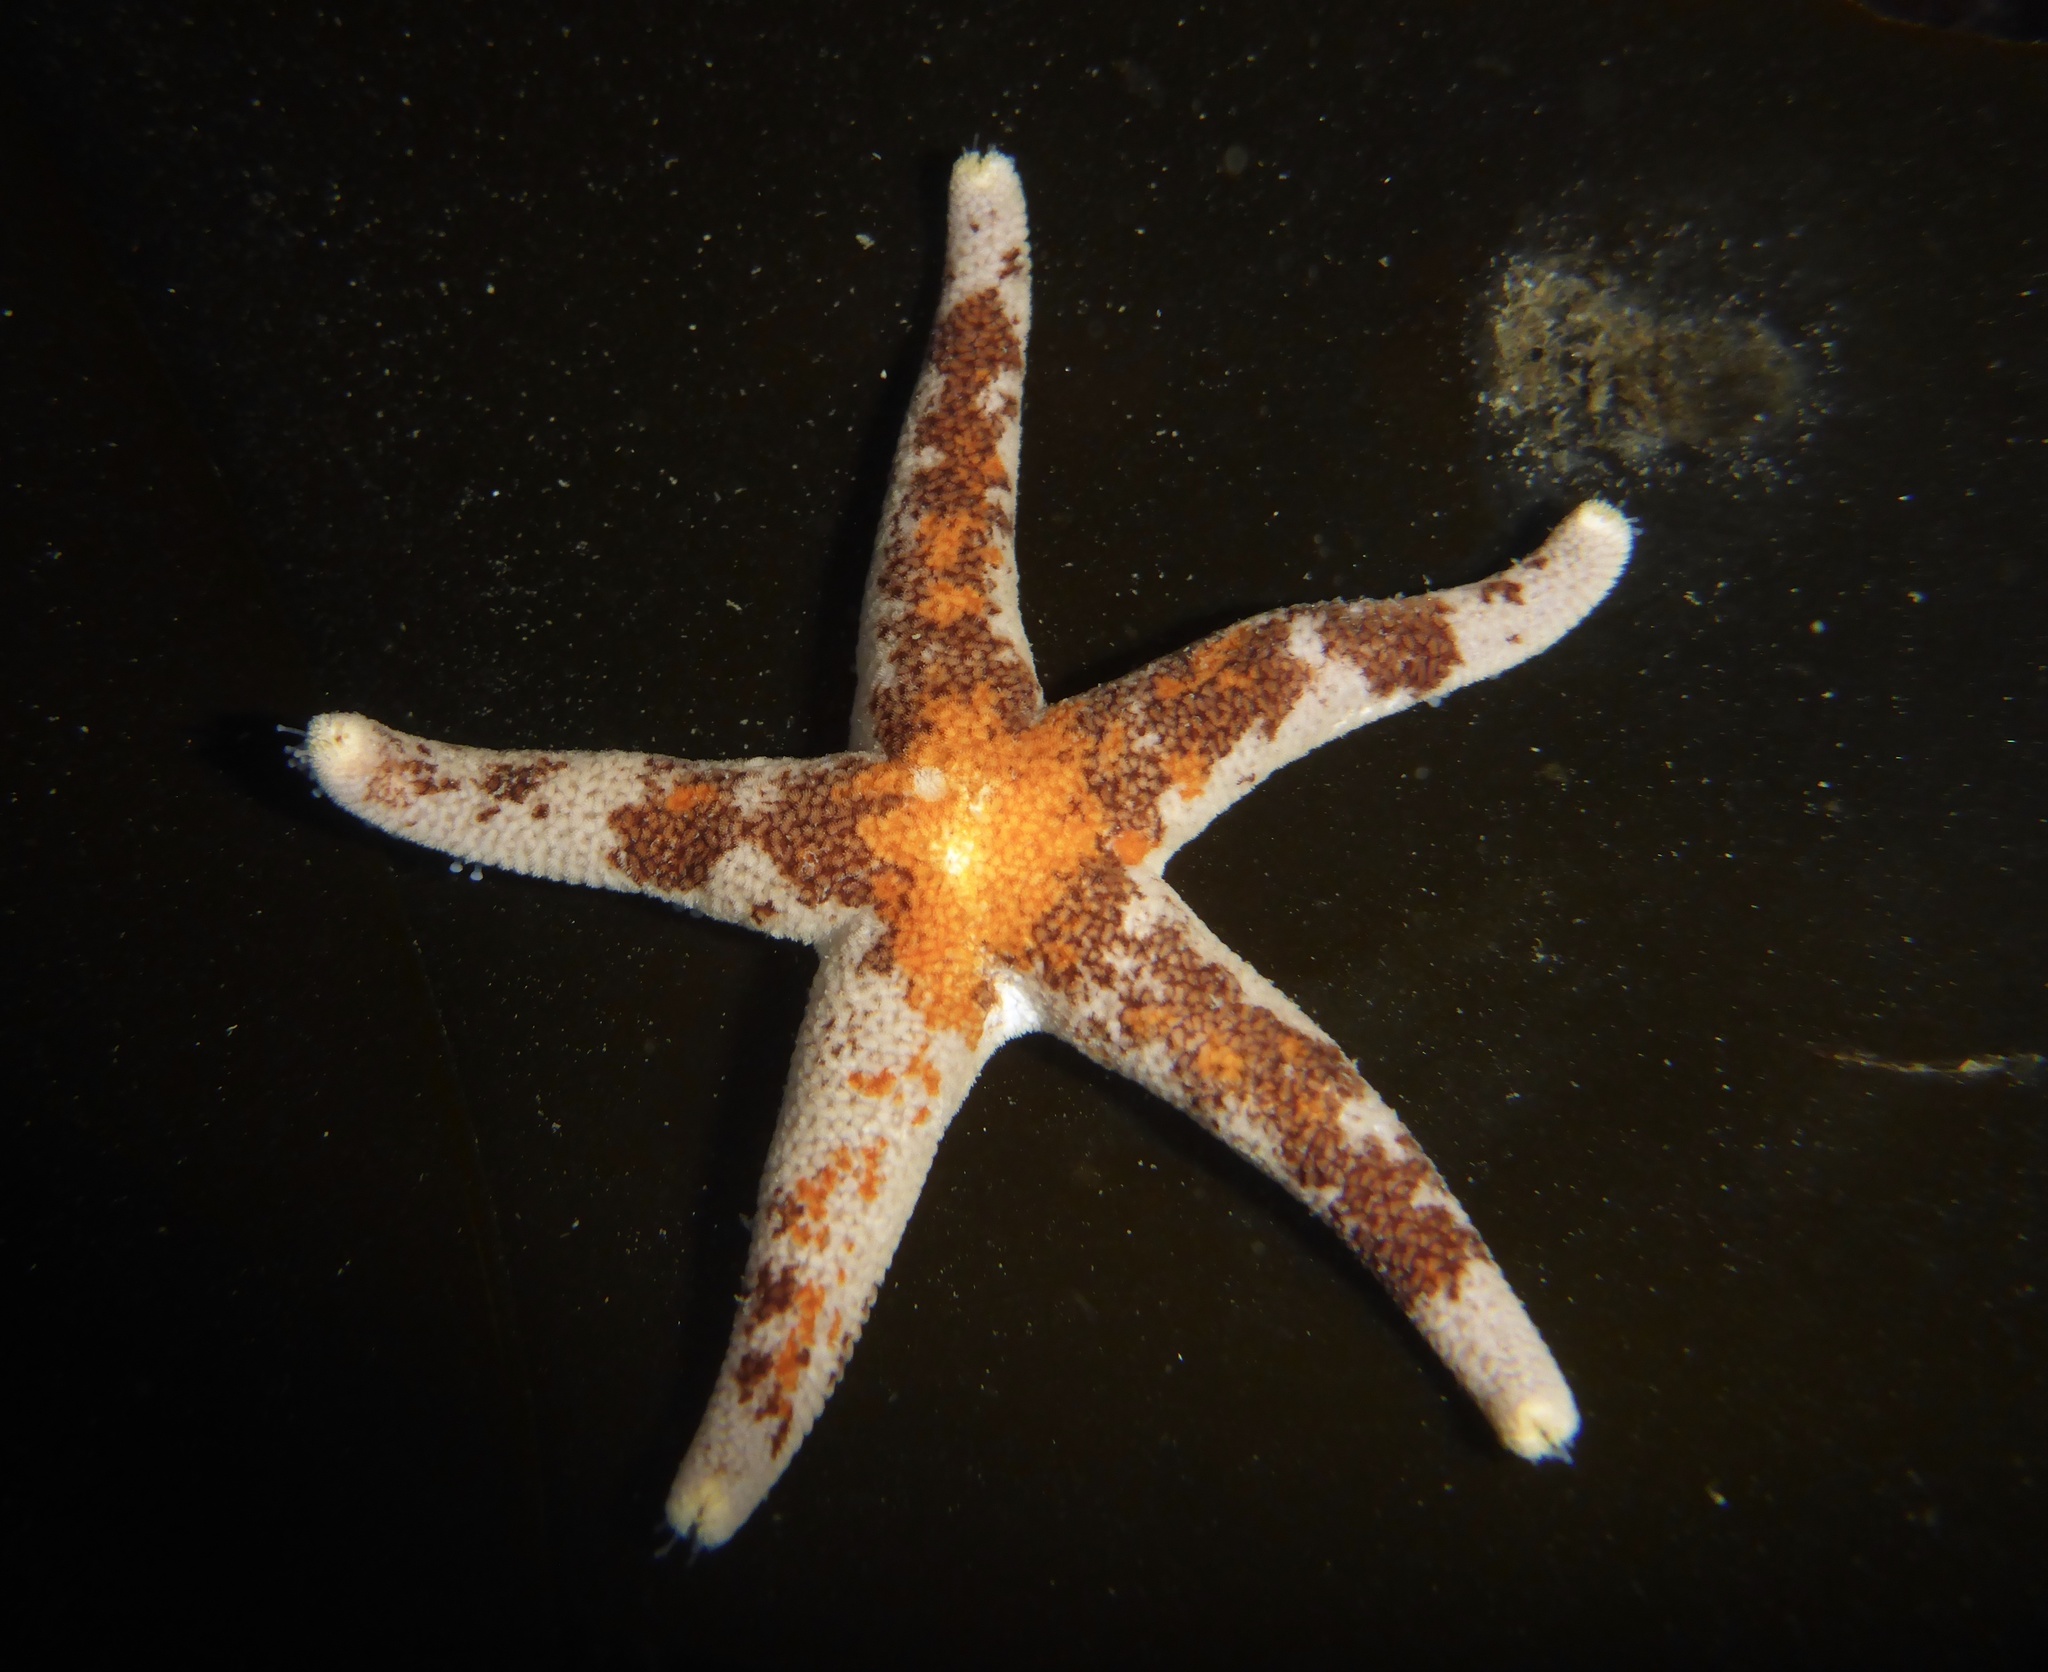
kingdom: Animalia
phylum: Echinodermata
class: Asteroidea
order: Spinulosida
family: Echinasteridae
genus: Henricia
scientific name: Henricia pumila
